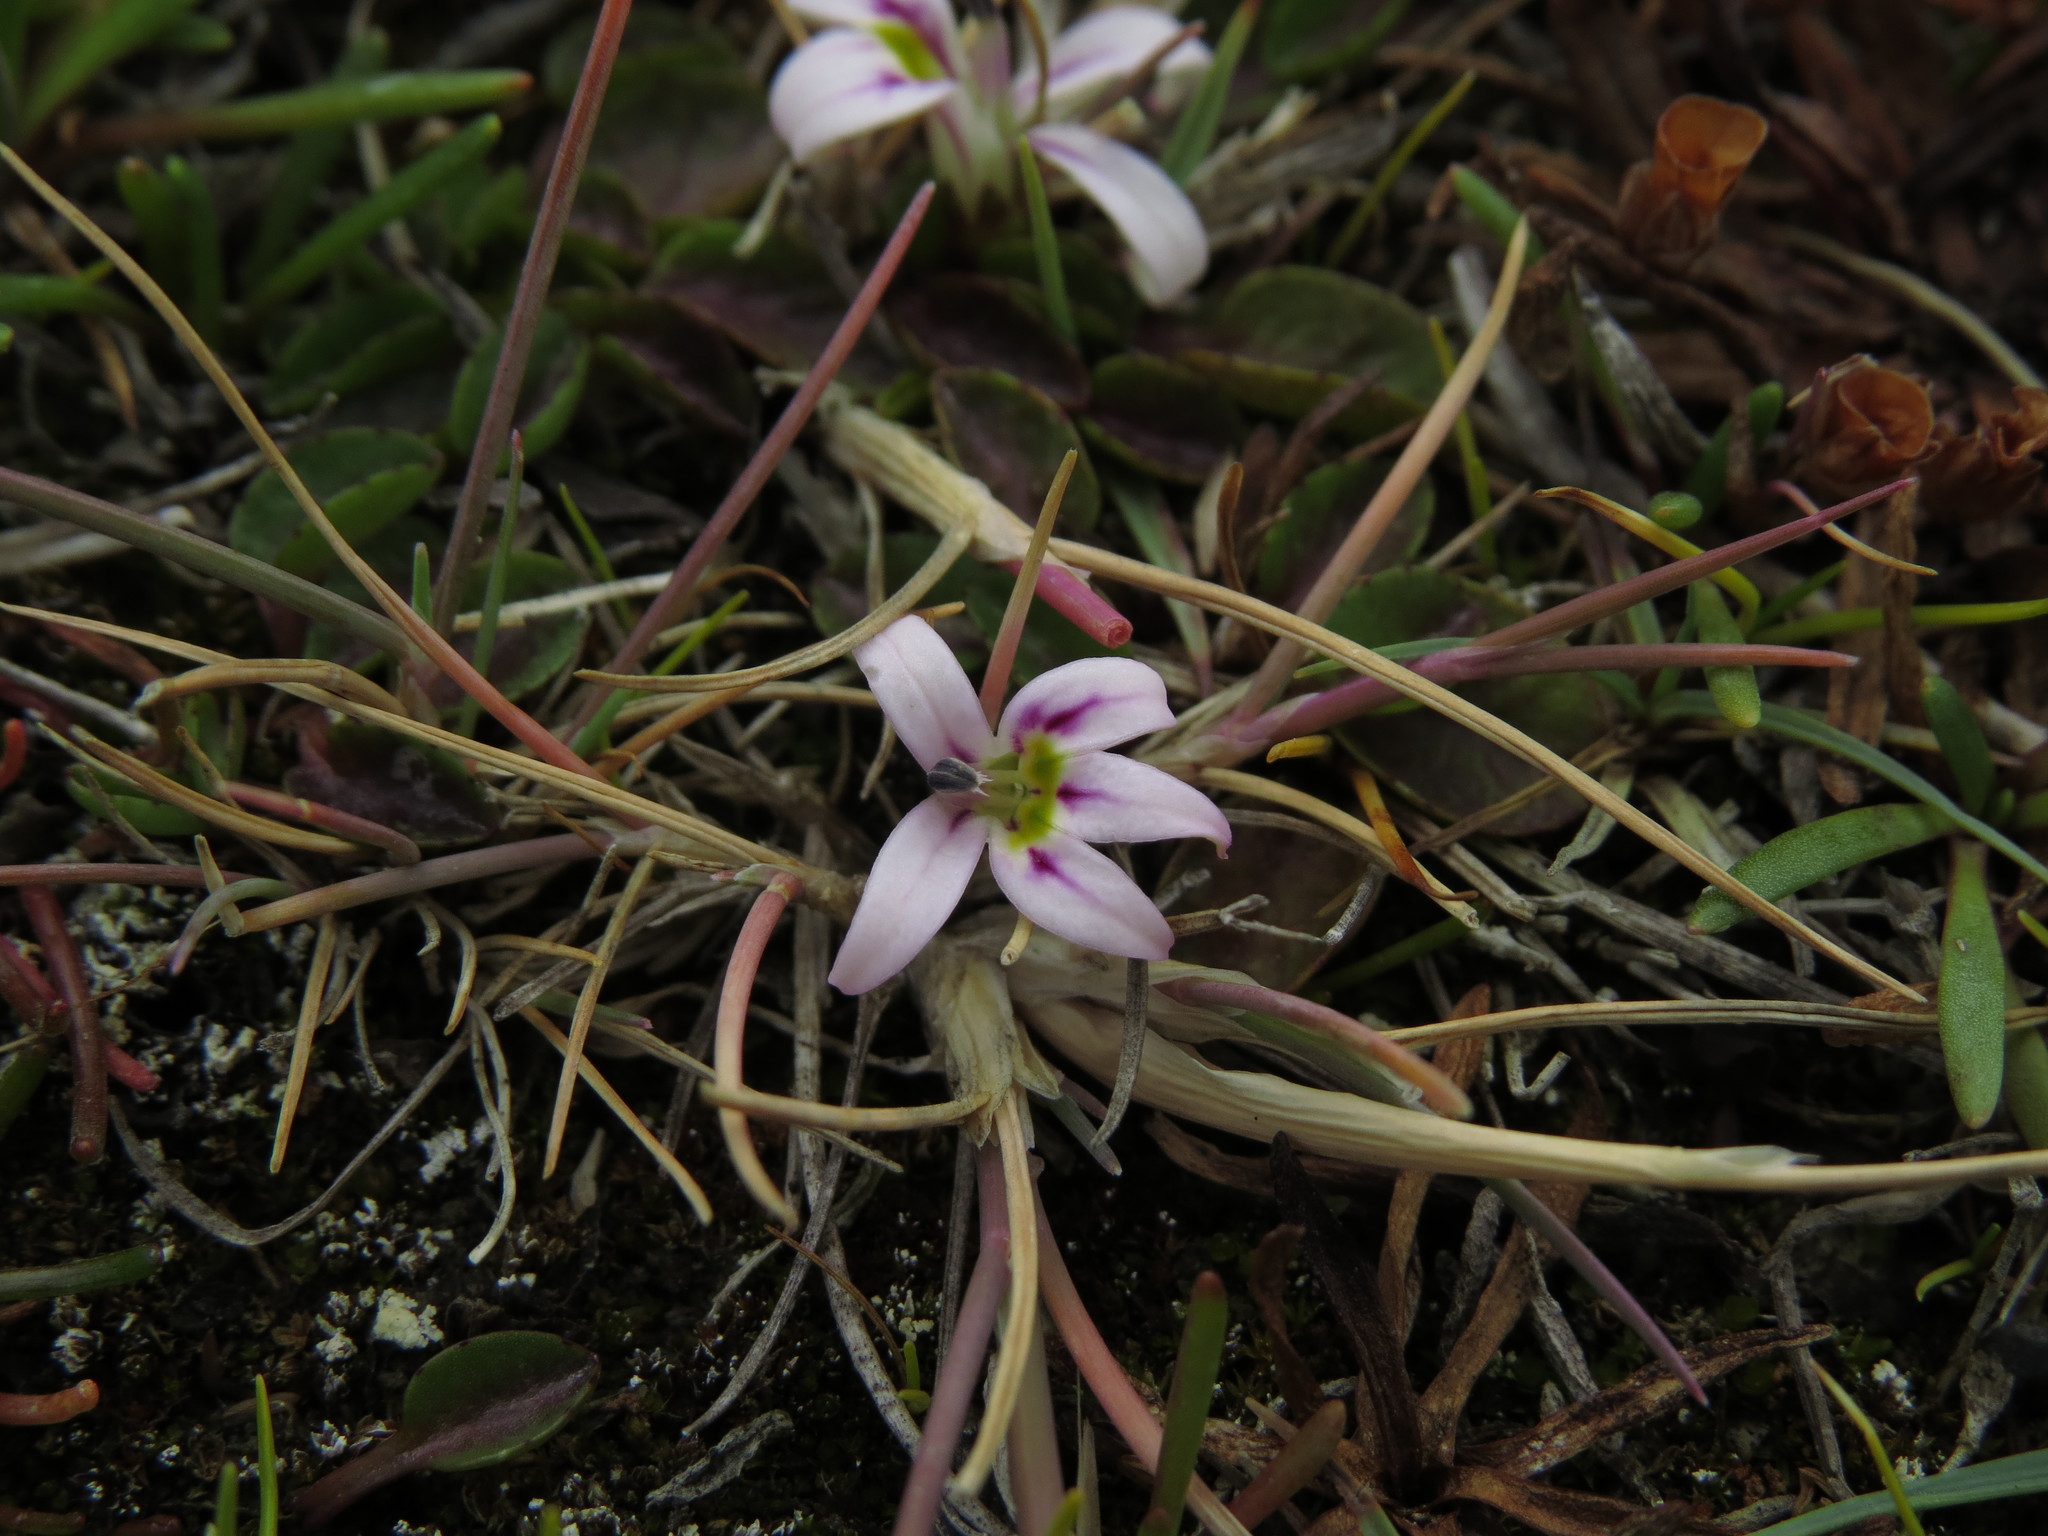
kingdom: Plantae
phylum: Tracheophyta
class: Magnoliopsida
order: Asterales
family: Campanulaceae
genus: Lobelia
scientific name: Lobelia oligophylla
